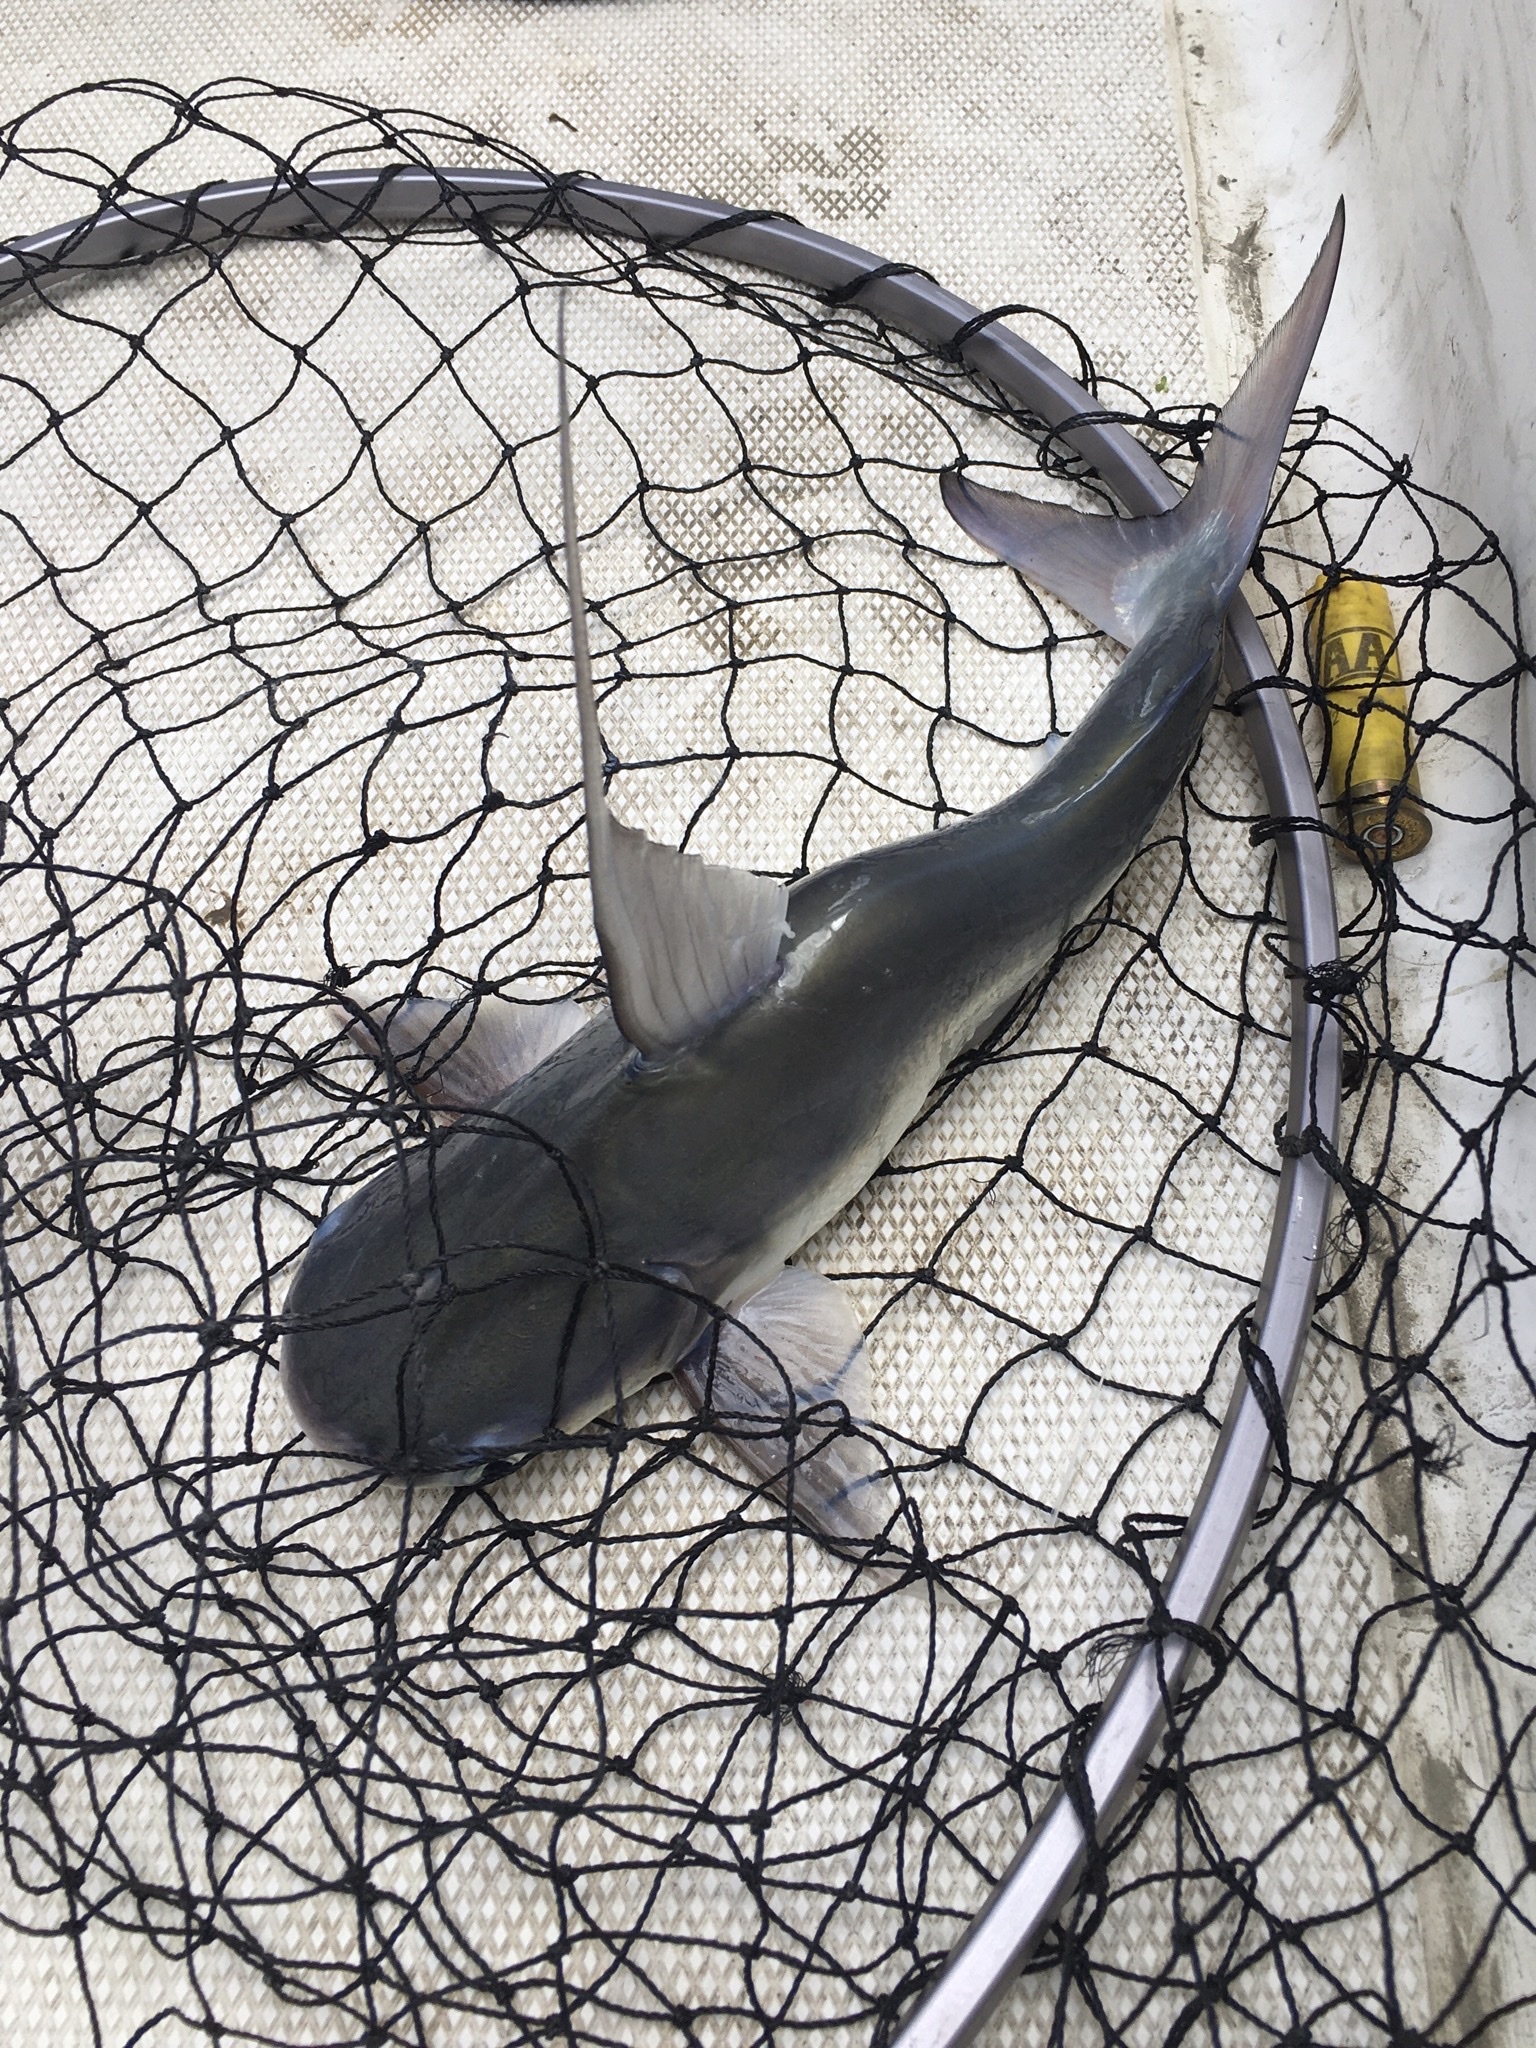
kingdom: Animalia
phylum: Chordata
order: Siluriformes
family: Ariidae
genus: Bagre
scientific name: Bagre marinus
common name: Gafftopsail sea catfish
